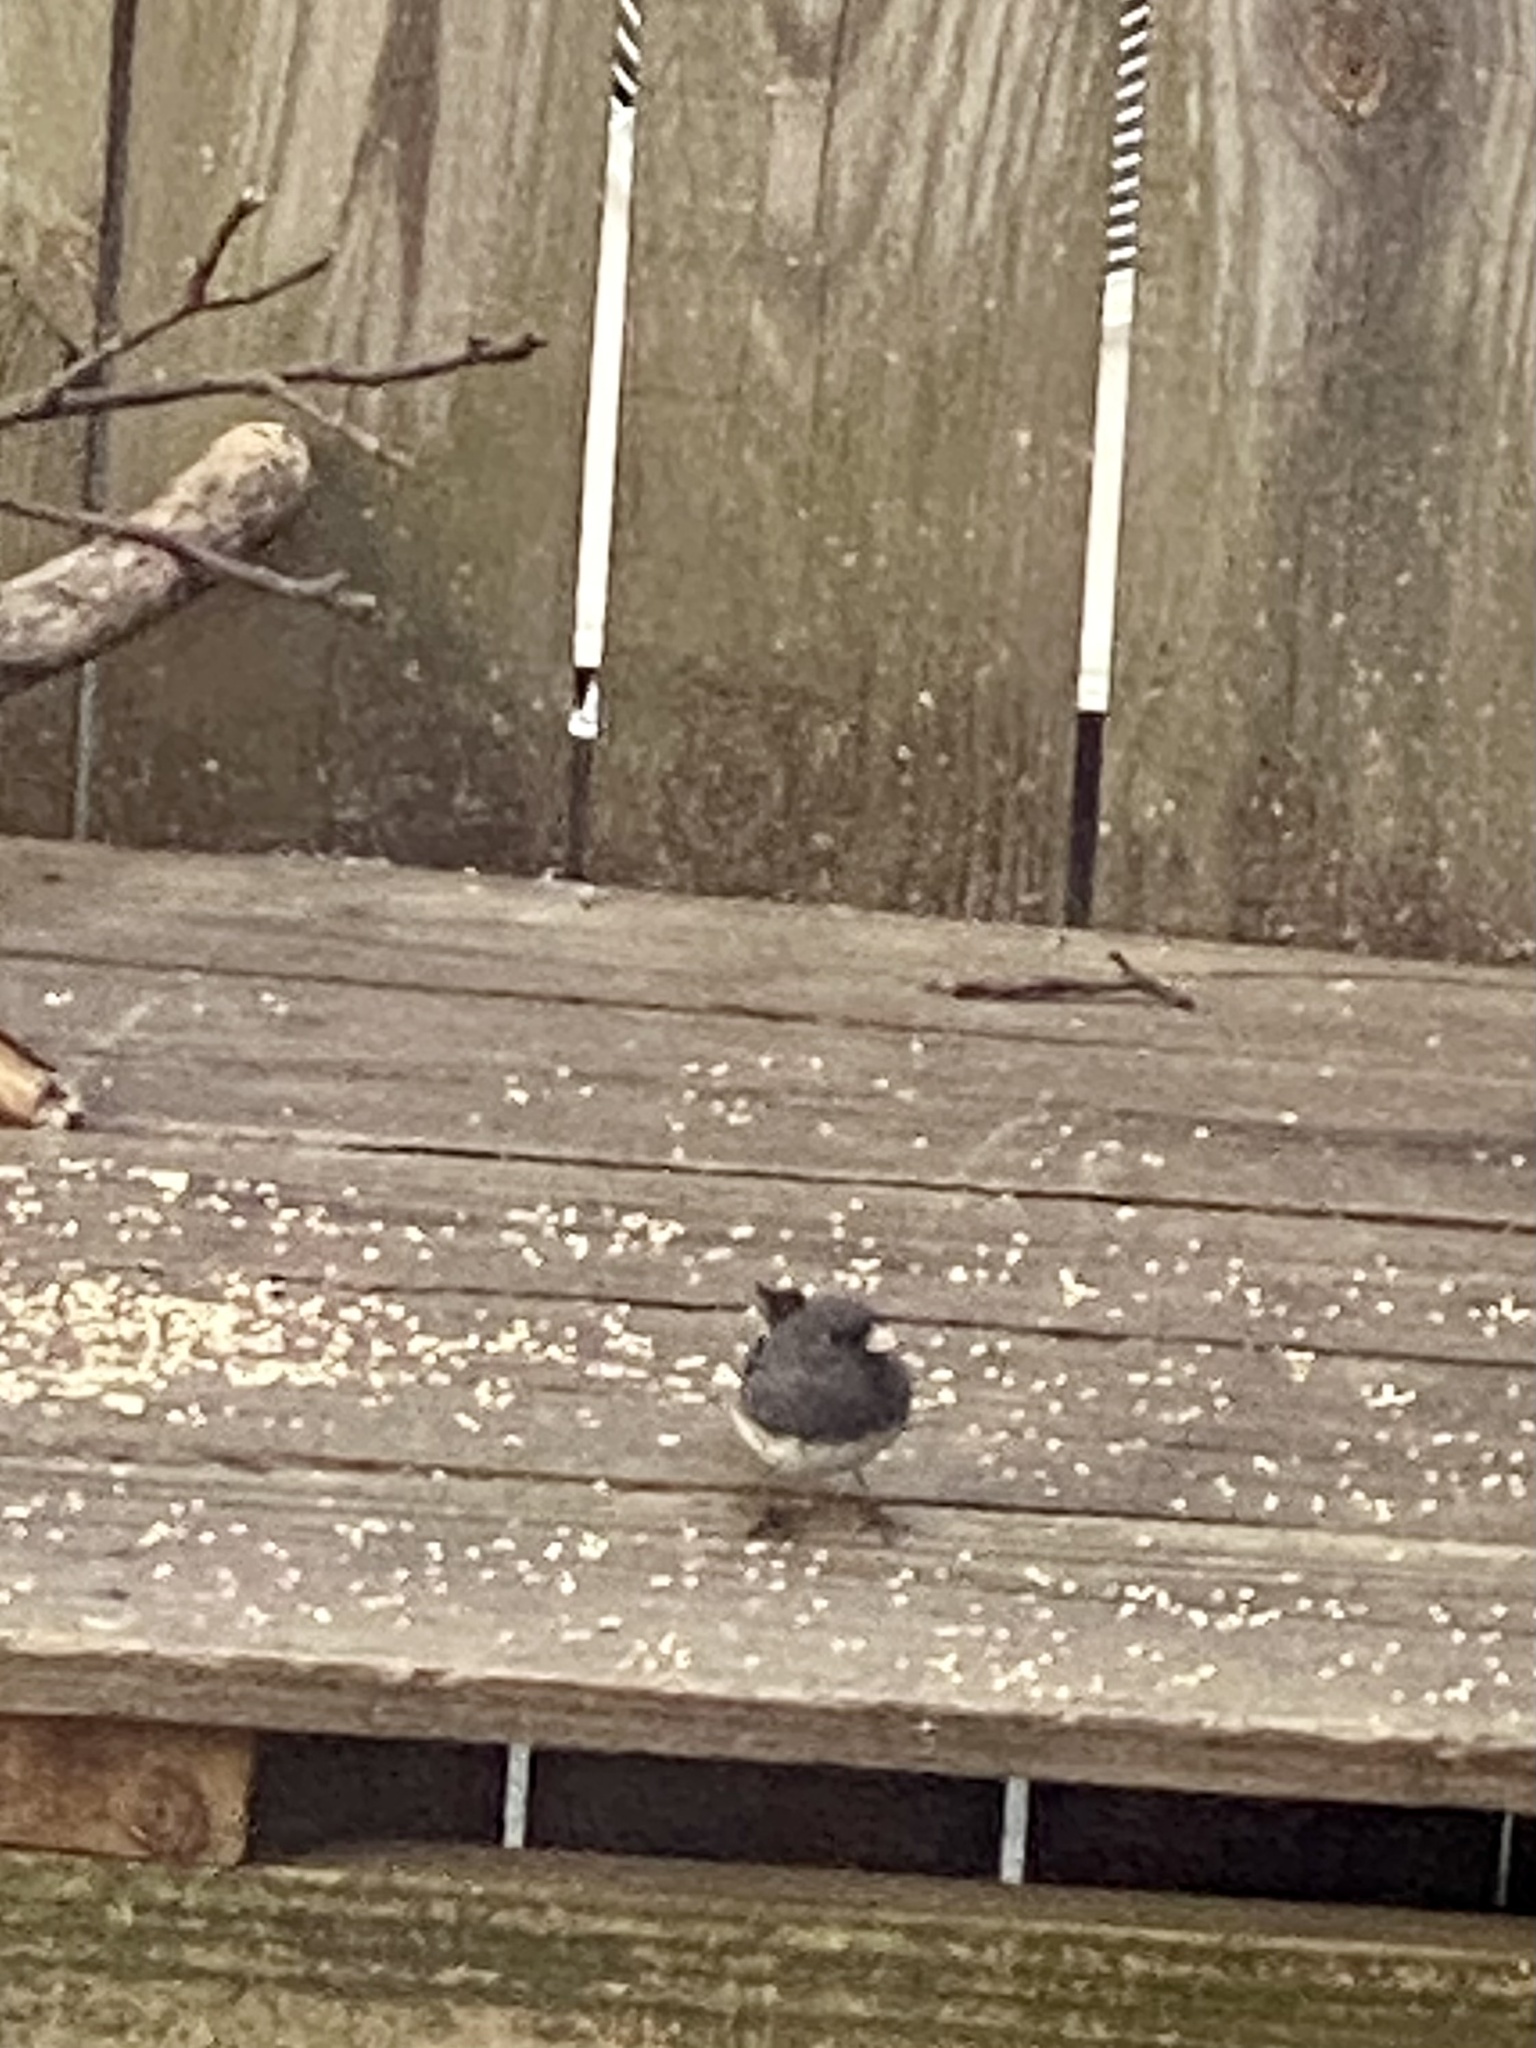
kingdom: Animalia
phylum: Chordata
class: Aves
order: Passeriformes
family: Passerellidae
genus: Junco
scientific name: Junco hyemalis
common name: Dark-eyed junco
